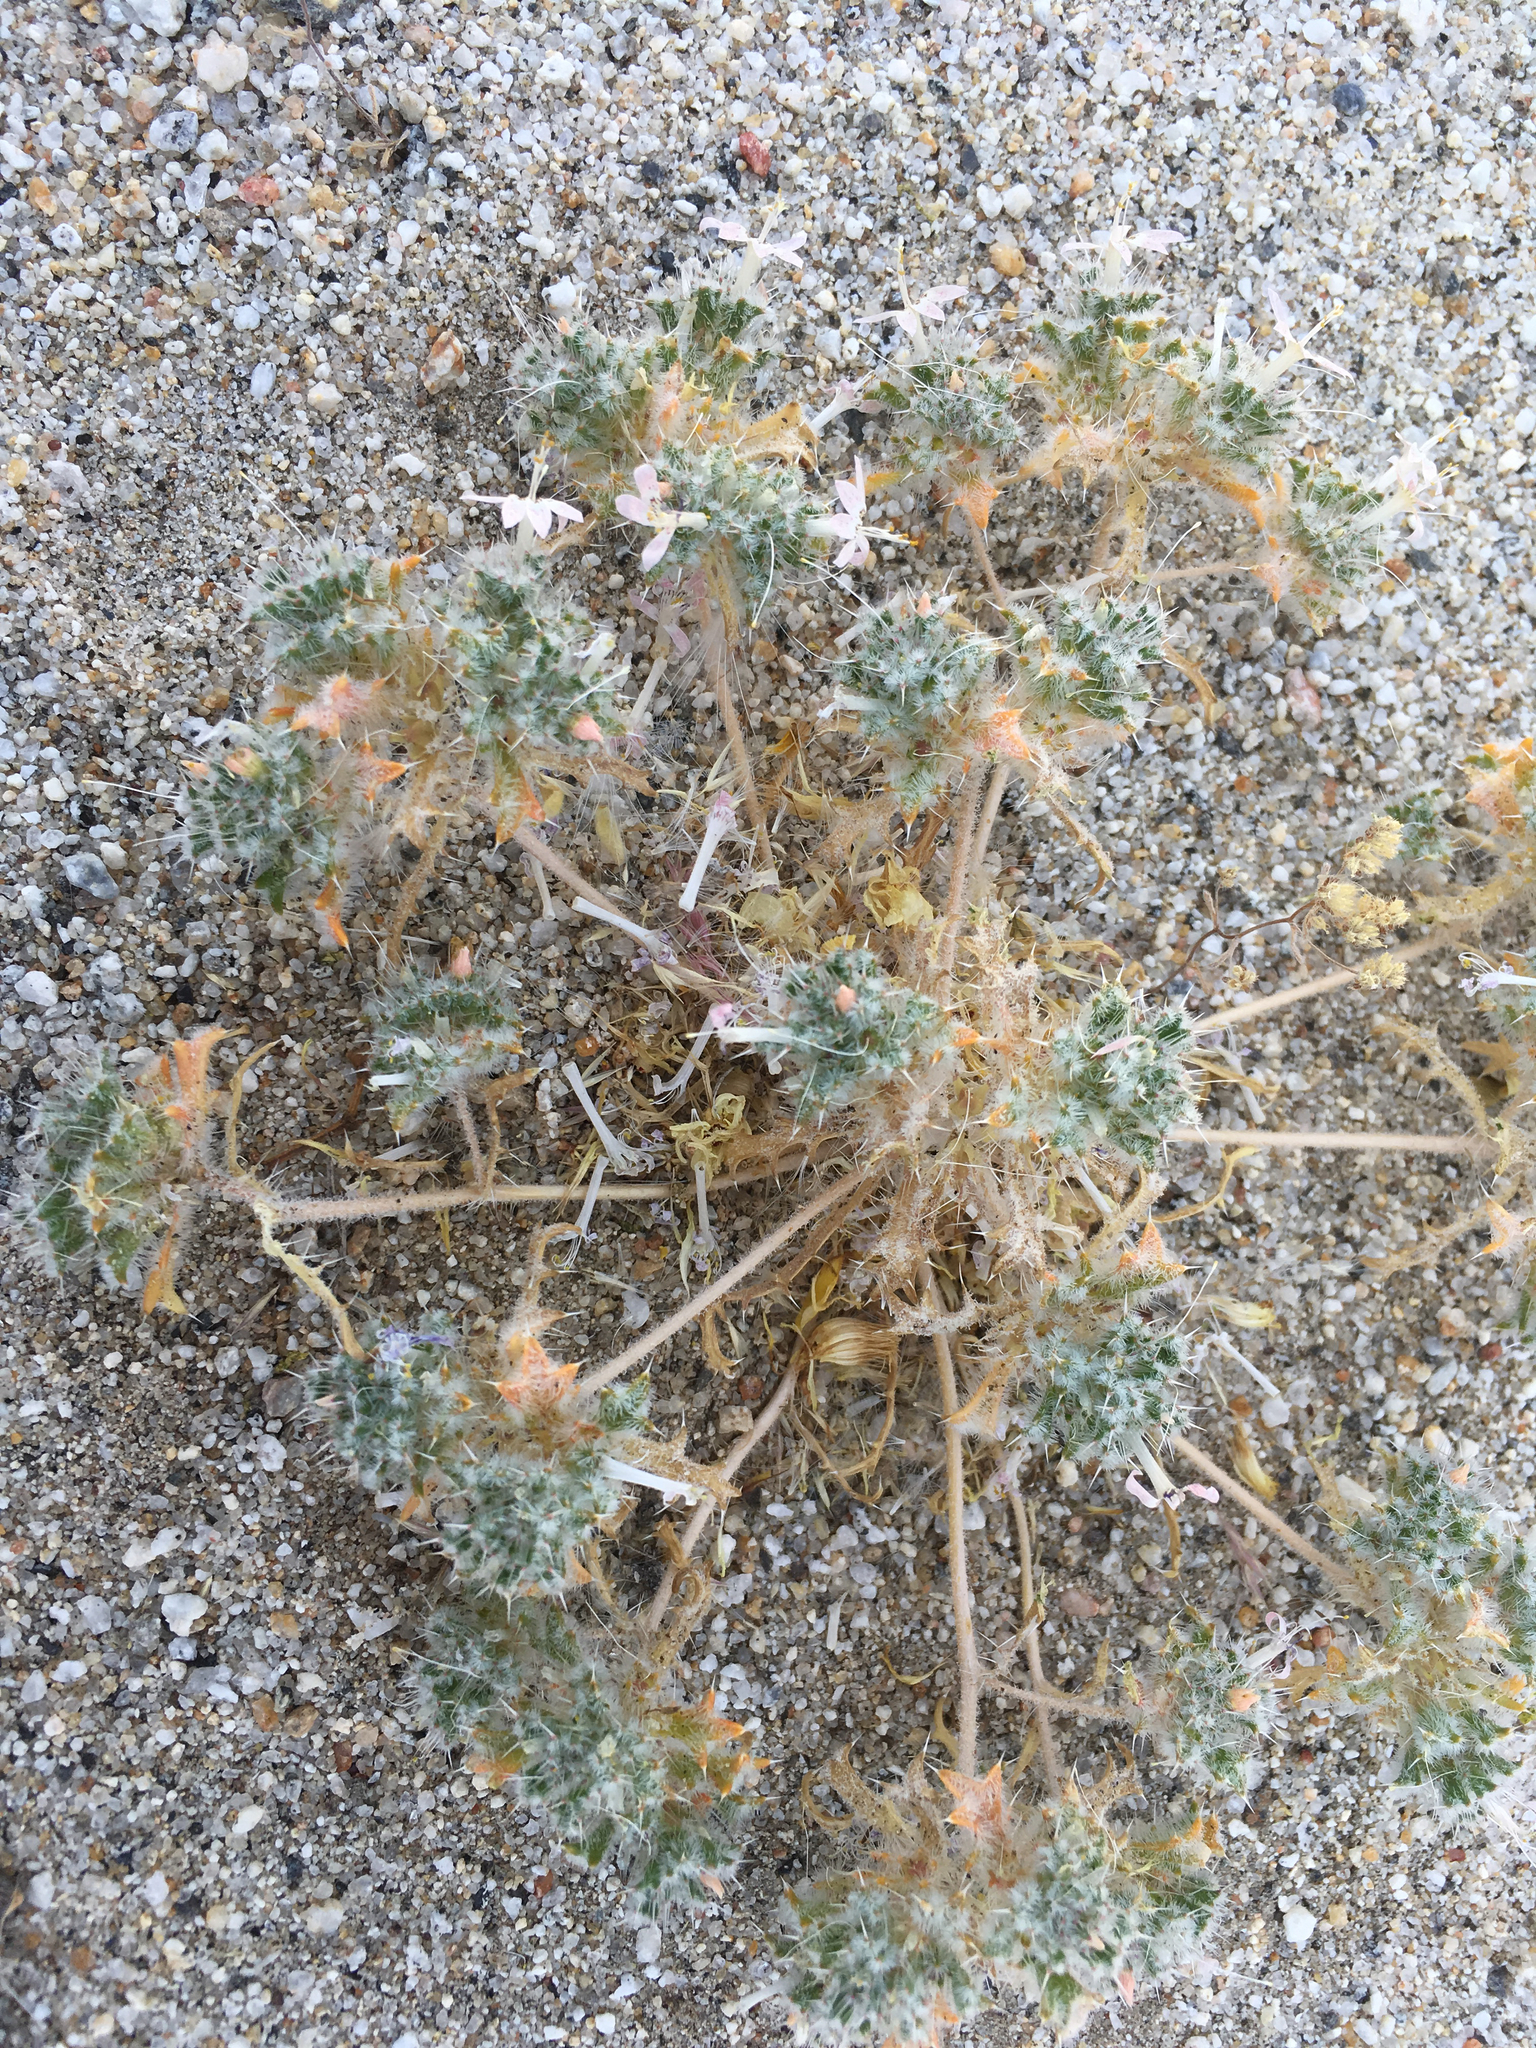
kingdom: Plantae
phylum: Tracheophyta
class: Magnoliopsida
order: Ericales
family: Polemoniaceae
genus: Loeseliastrum
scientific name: Loeseliastrum matthewsii
